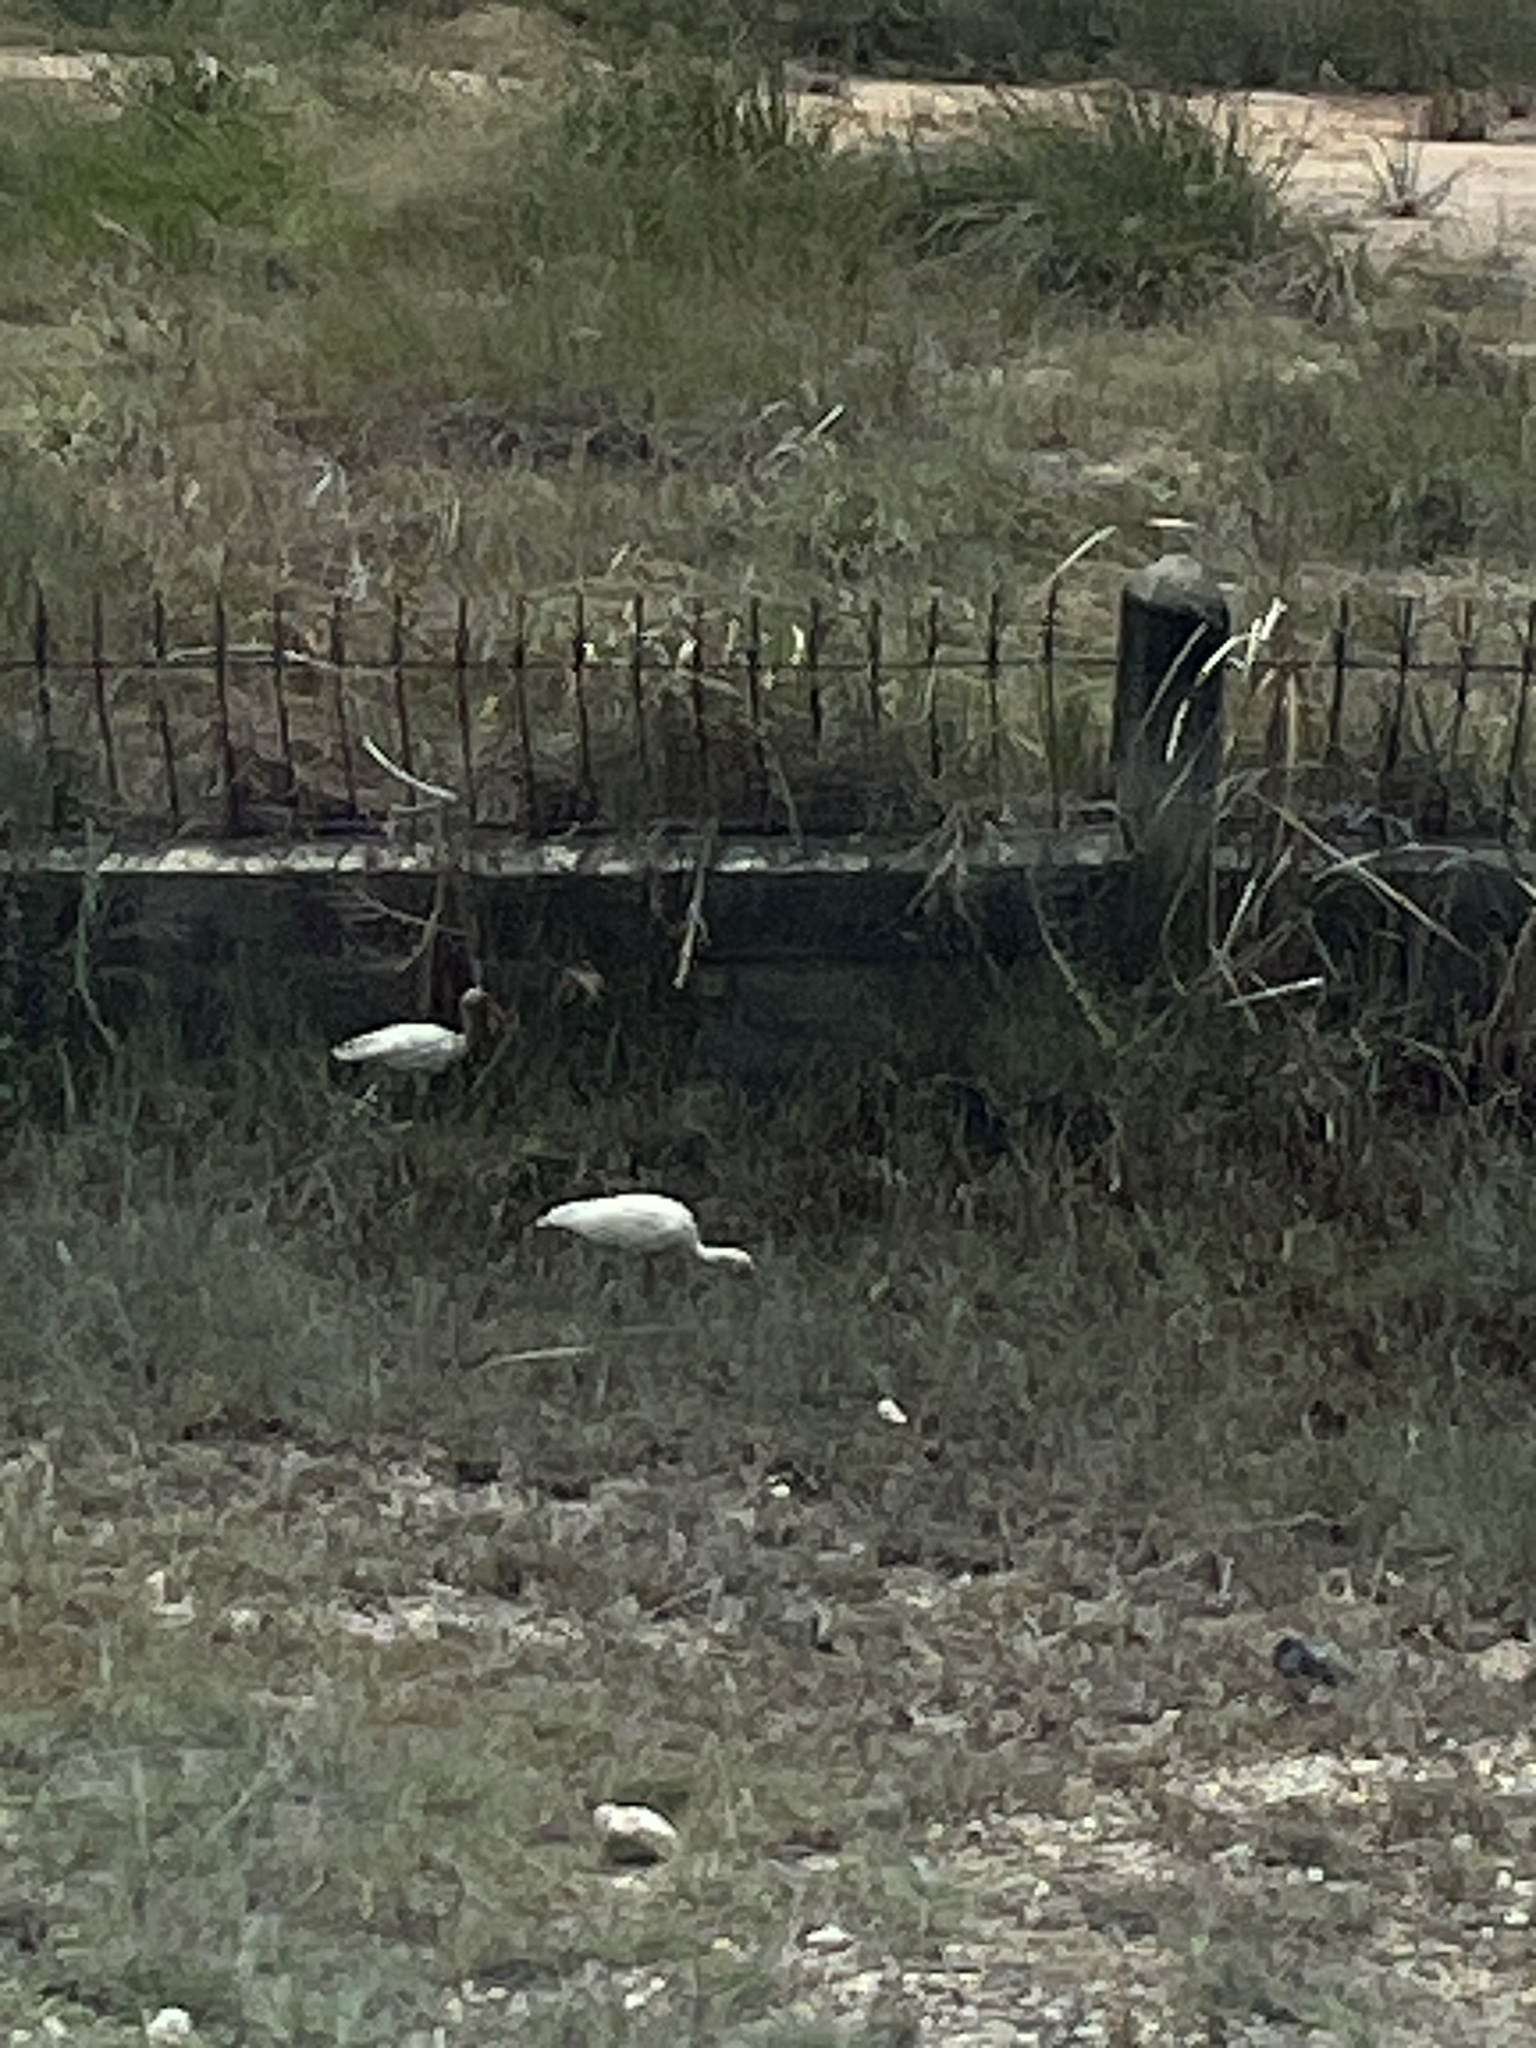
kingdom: Animalia
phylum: Chordata
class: Aves
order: Pelecaniformes
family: Threskiornithidae
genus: Eudocimus
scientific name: Eudocimus albus
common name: White ibis
